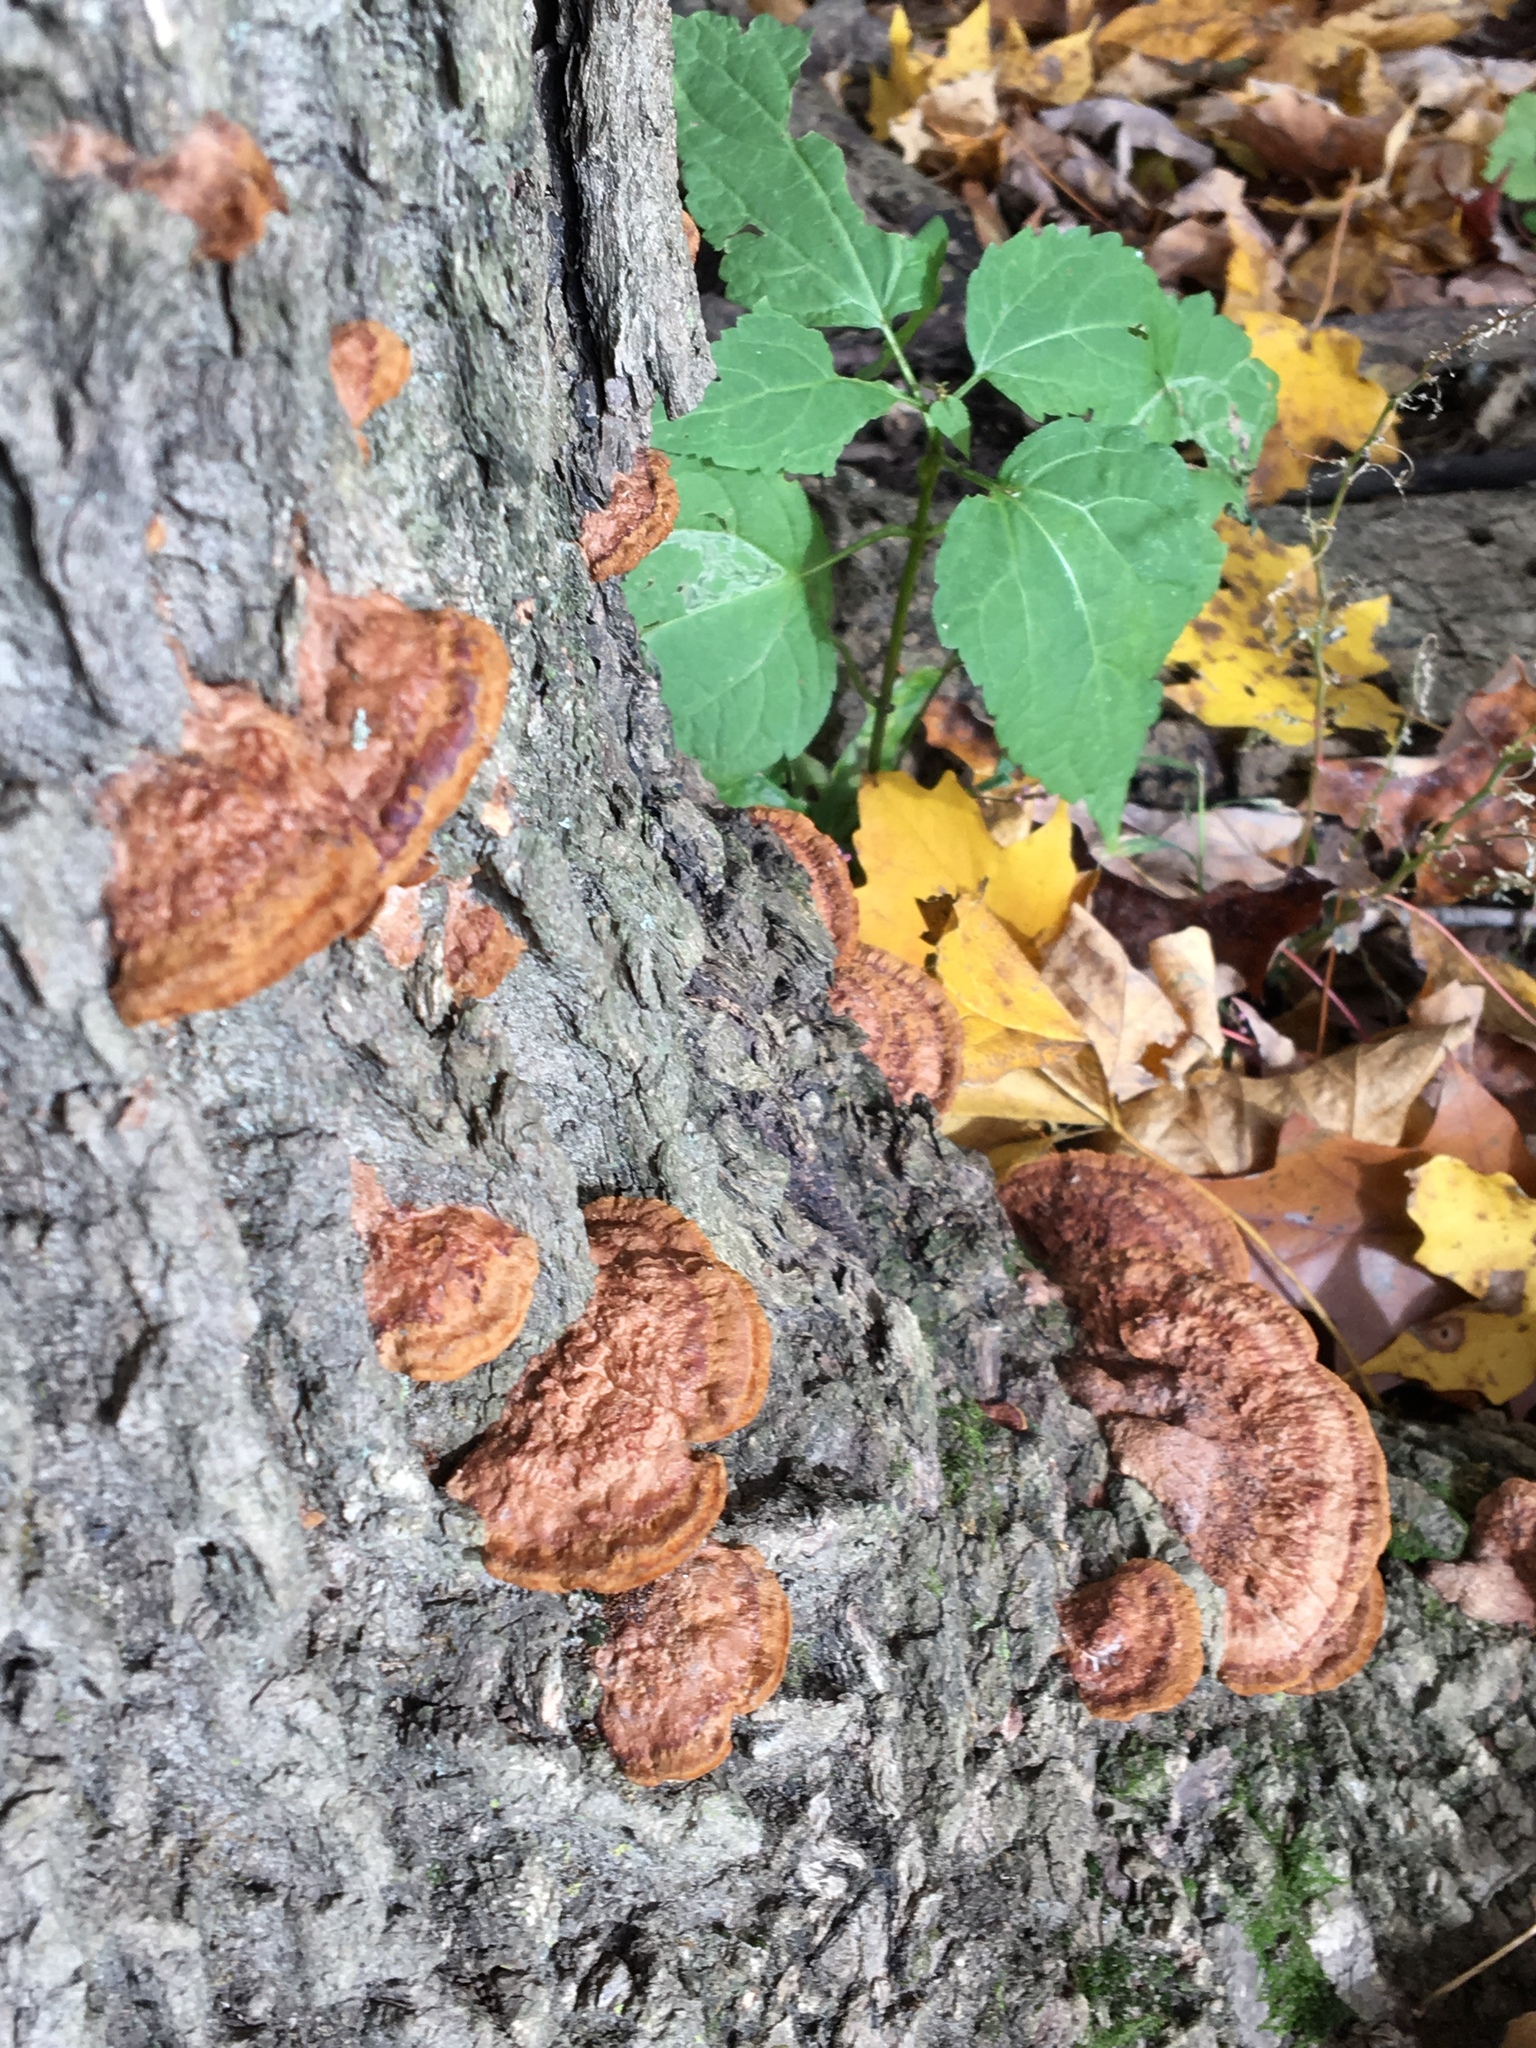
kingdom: Fungi
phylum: Basidiomycota
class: Agaricomycetes
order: Hymenochaetales
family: Hymenochaetaceae
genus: Phellinus
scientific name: Phellinus gilvus
